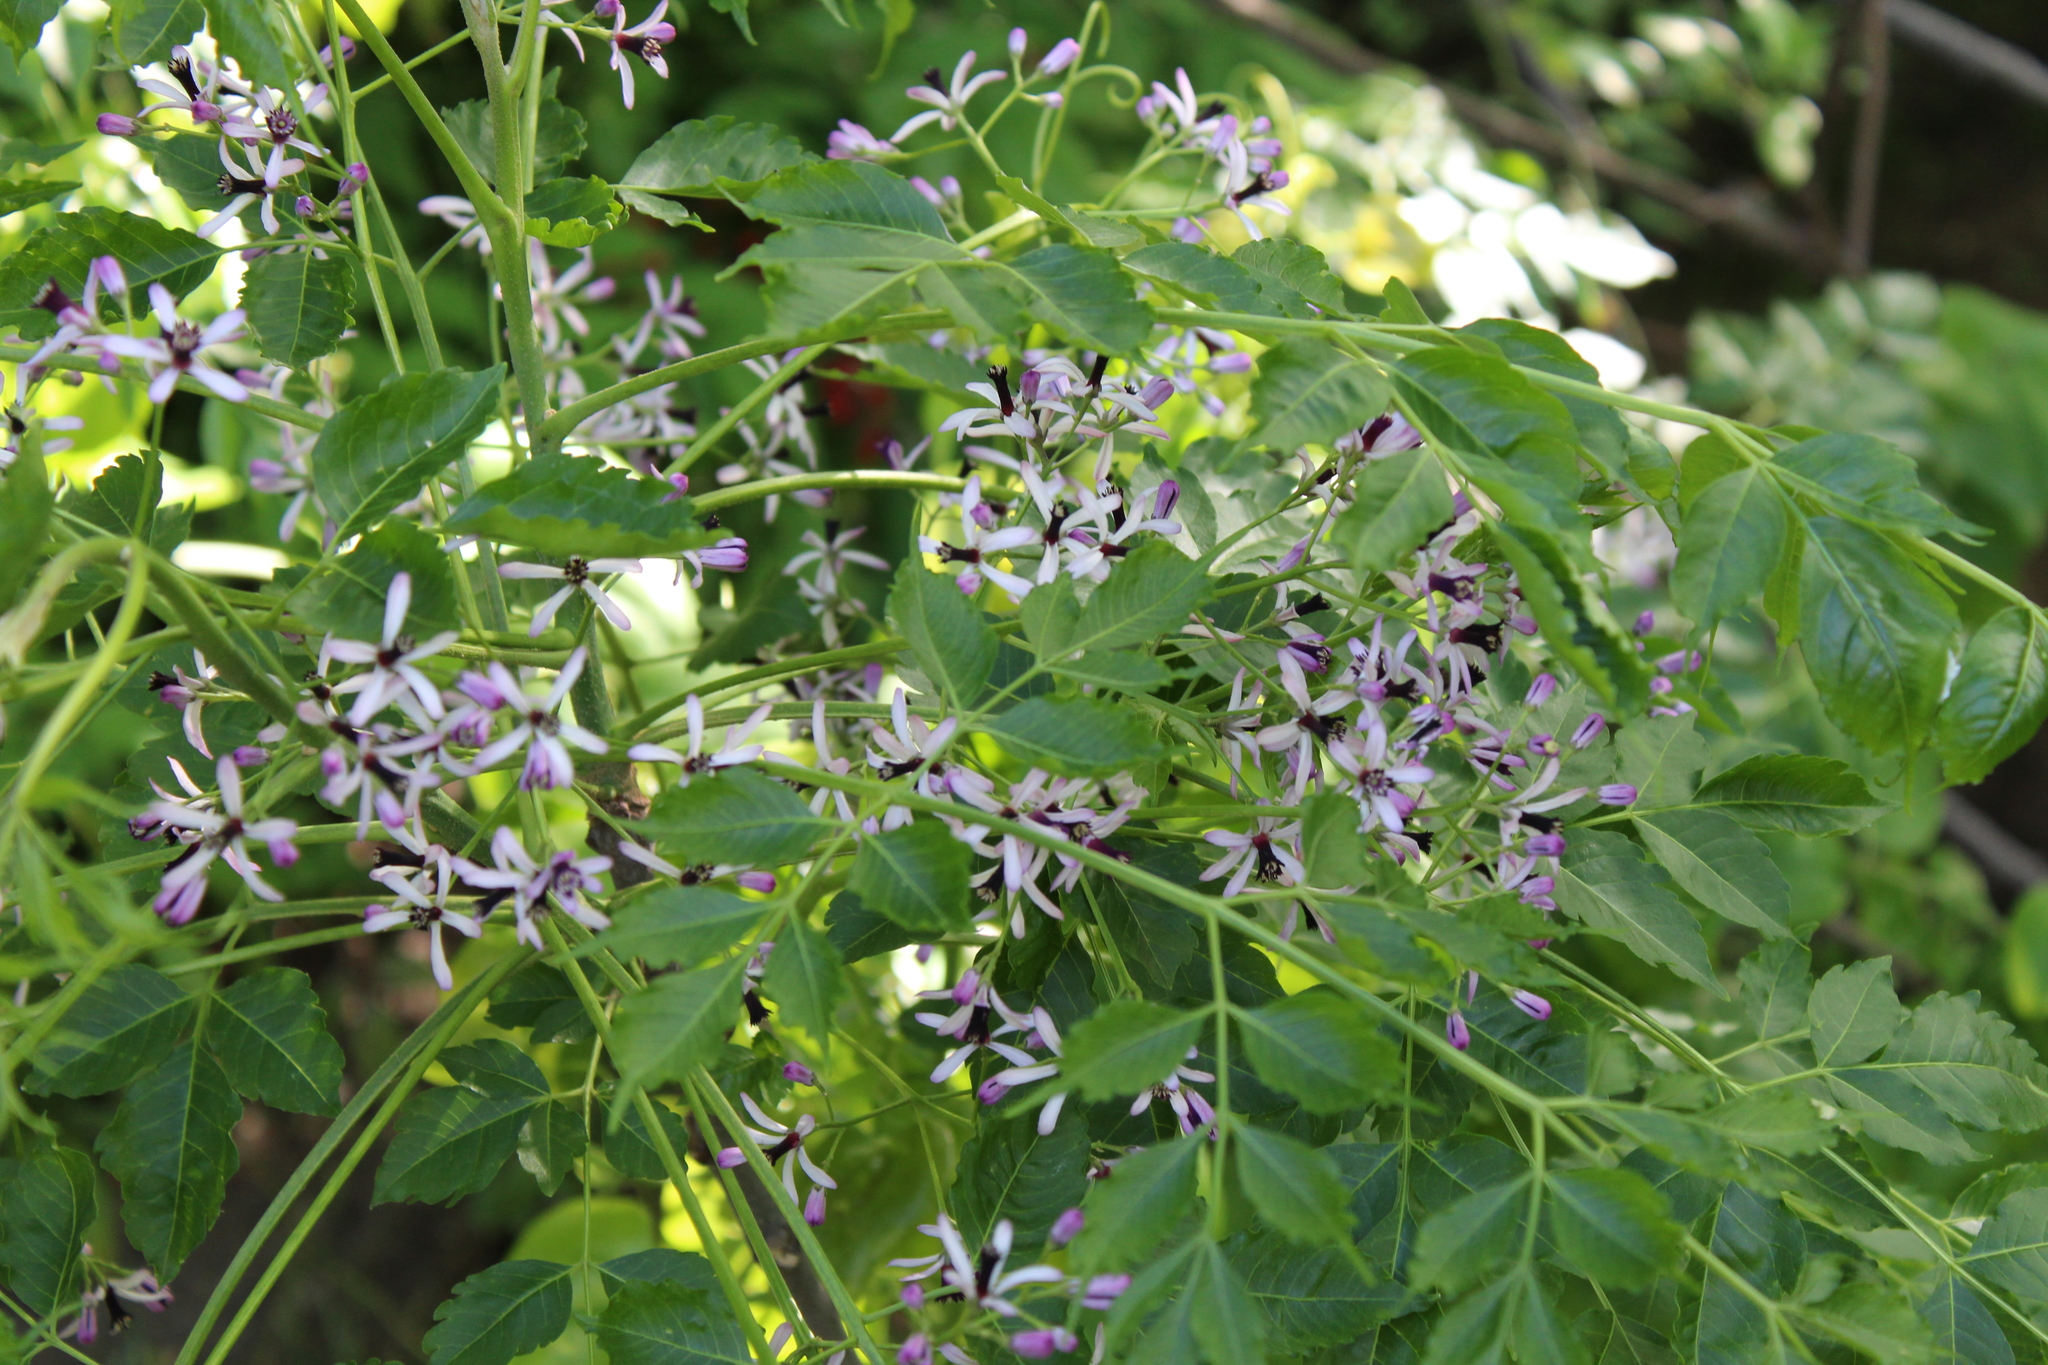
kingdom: Plantae
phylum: Tracheophyta
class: Magnoliopsida
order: Sapindales
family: Meliaceae
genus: Melia
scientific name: Melia azedarach
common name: Chinaberrytree
